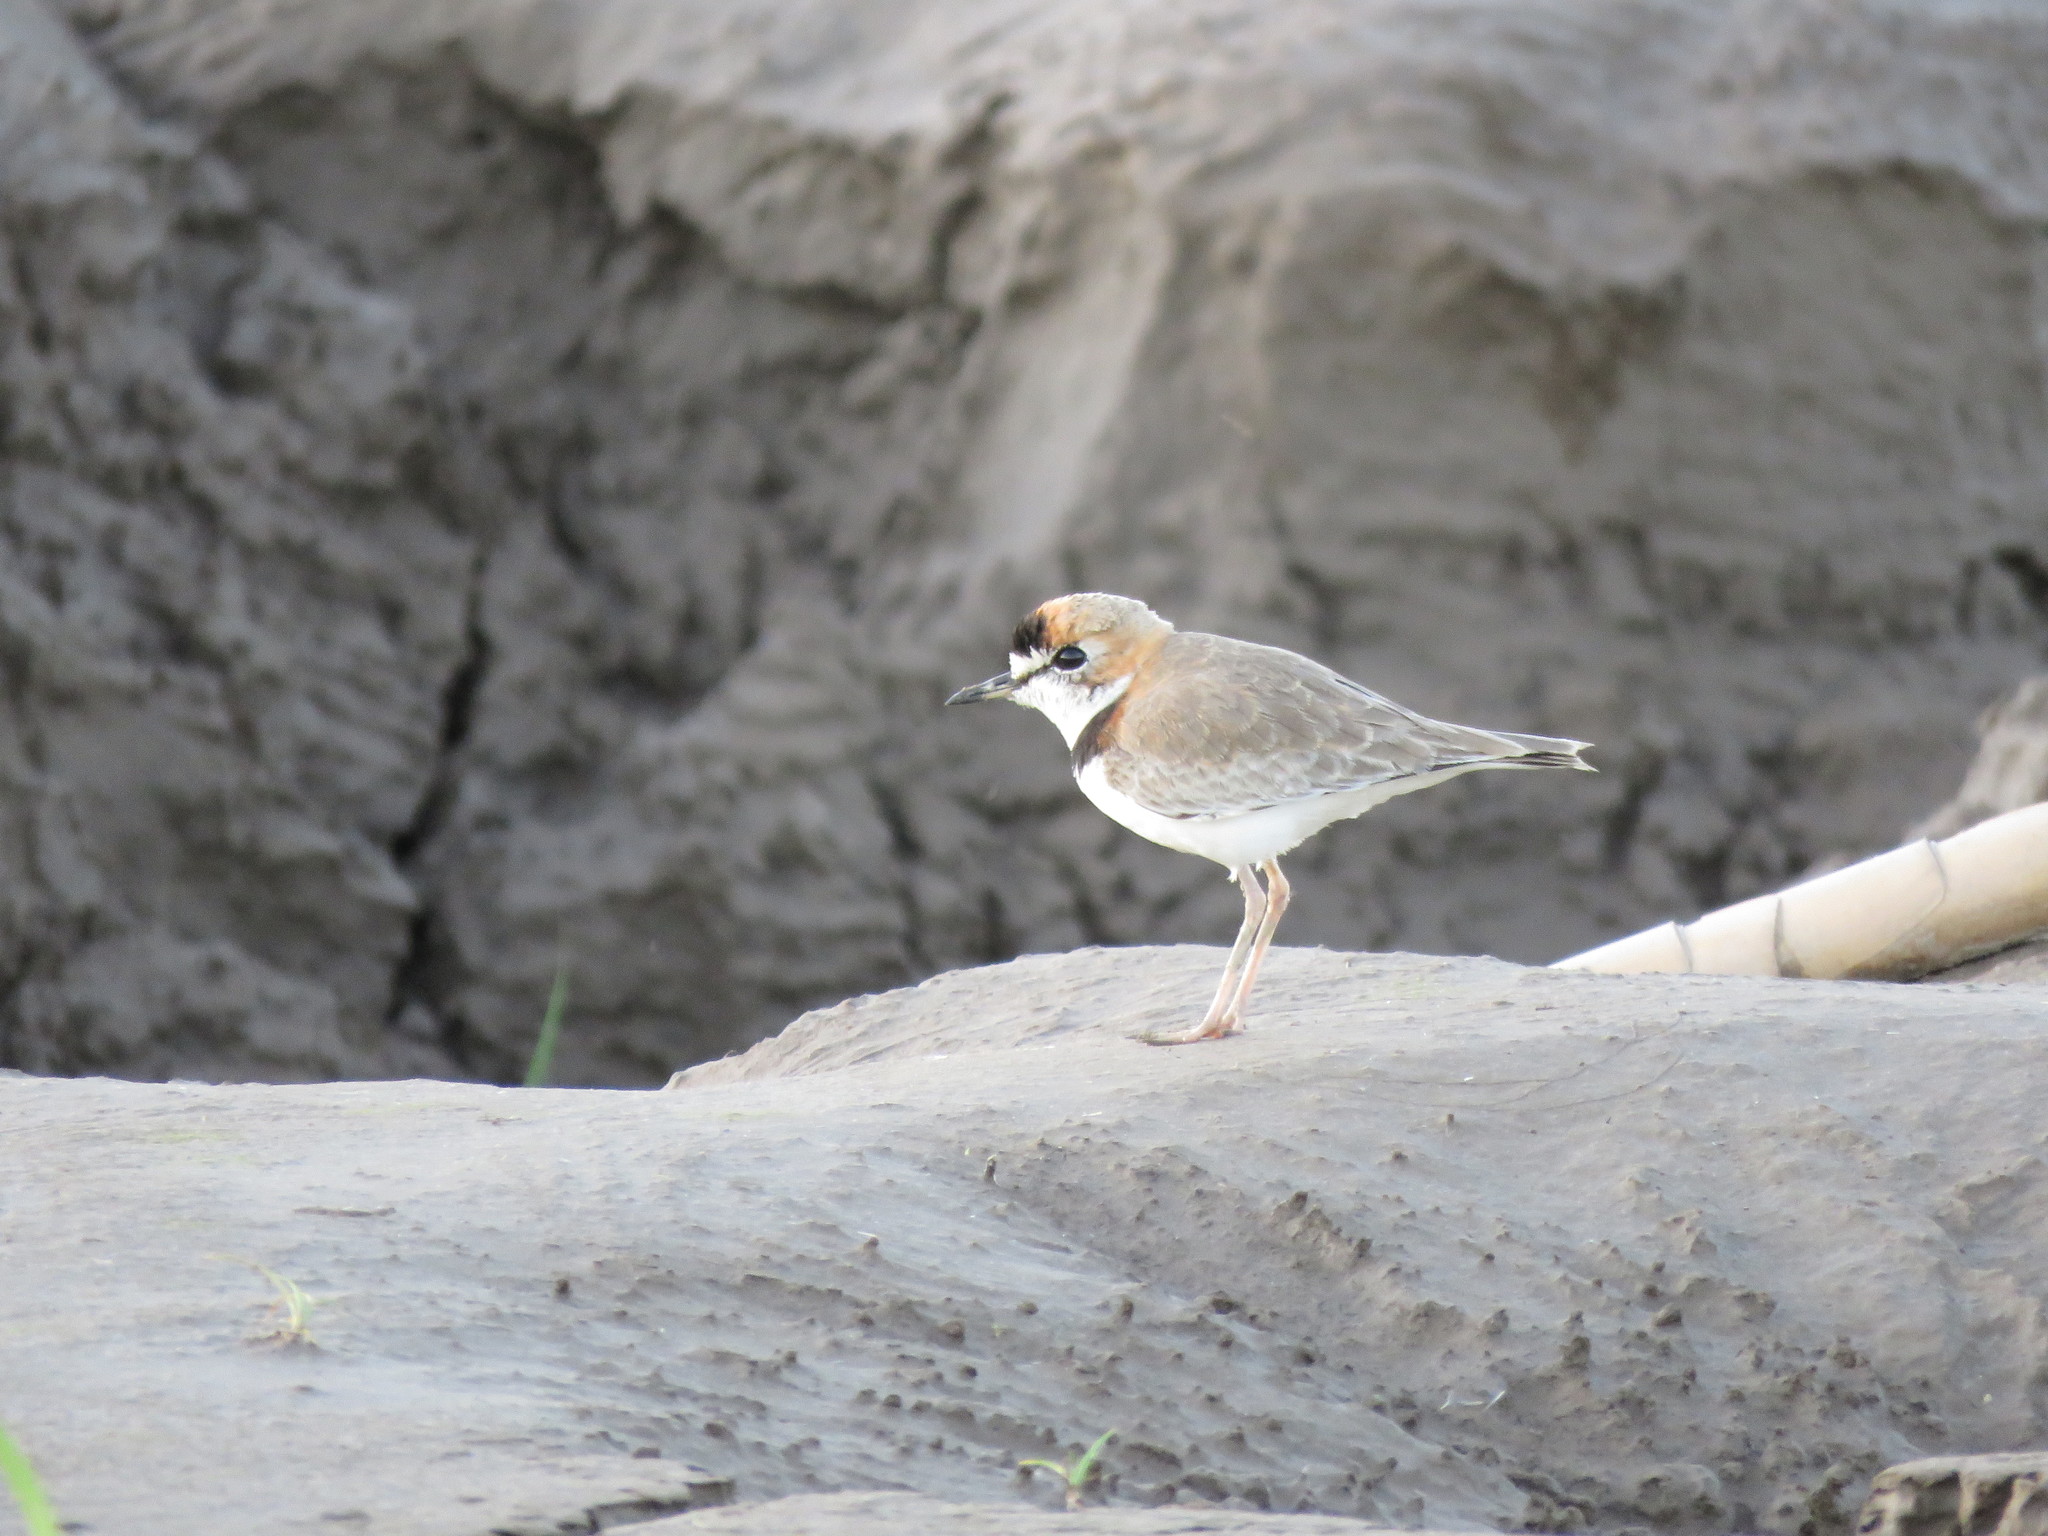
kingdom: Animalia
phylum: Chordata
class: Aves
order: Charadriiformes
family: Charadriidae
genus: Anarhynchus
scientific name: Anarhynchus
